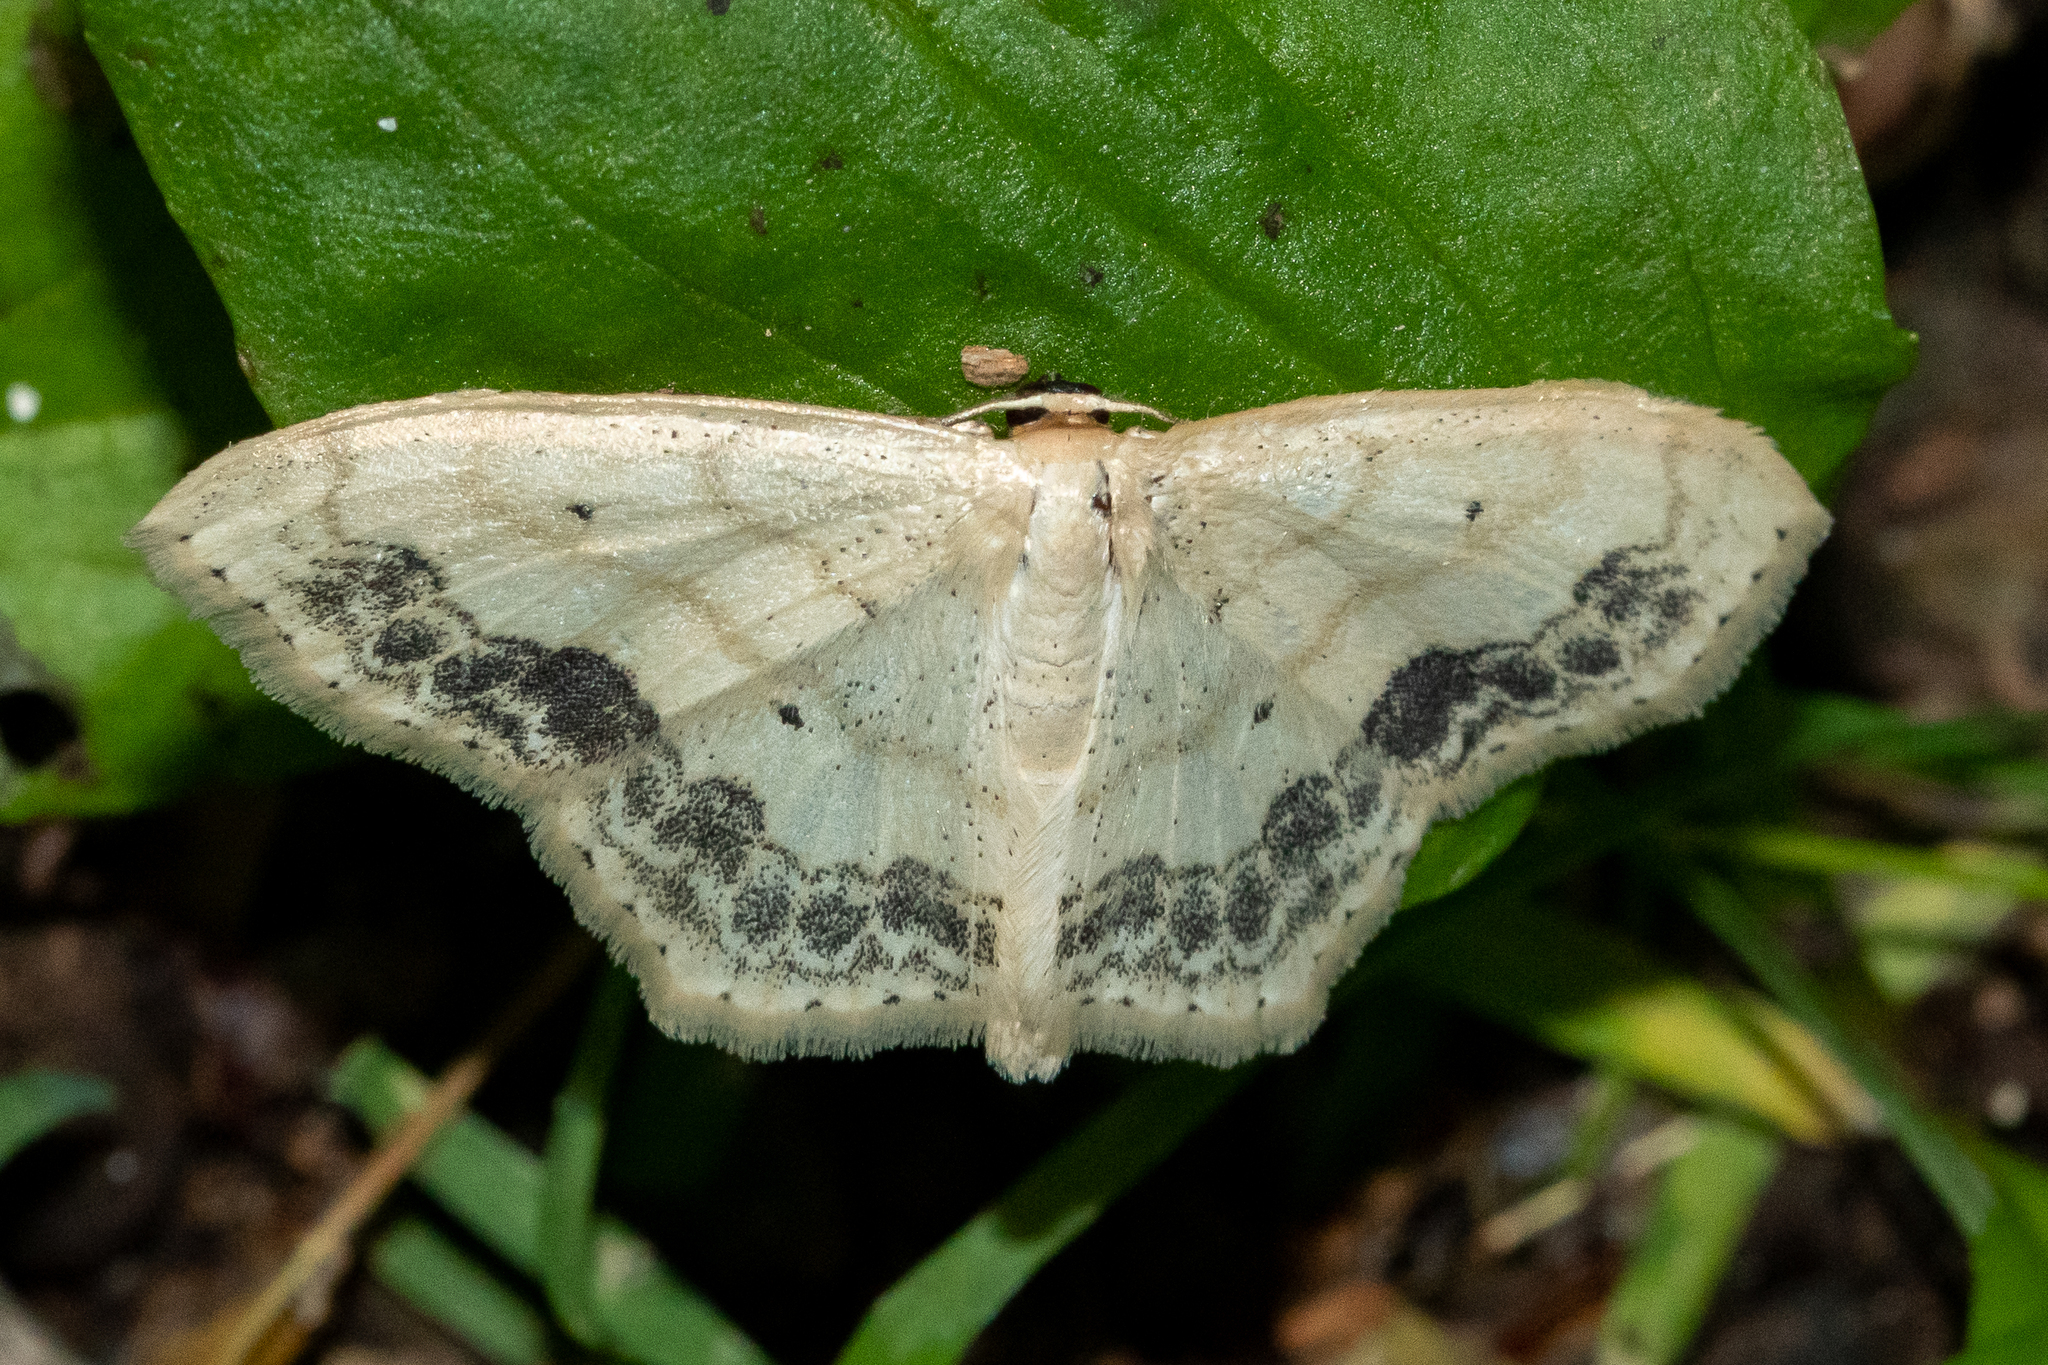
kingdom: Animalia
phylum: Arthropoda
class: Insecta
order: Lepidoptera
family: Geometridae
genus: Scopula
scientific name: Scopula limboundata
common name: Large lace border
